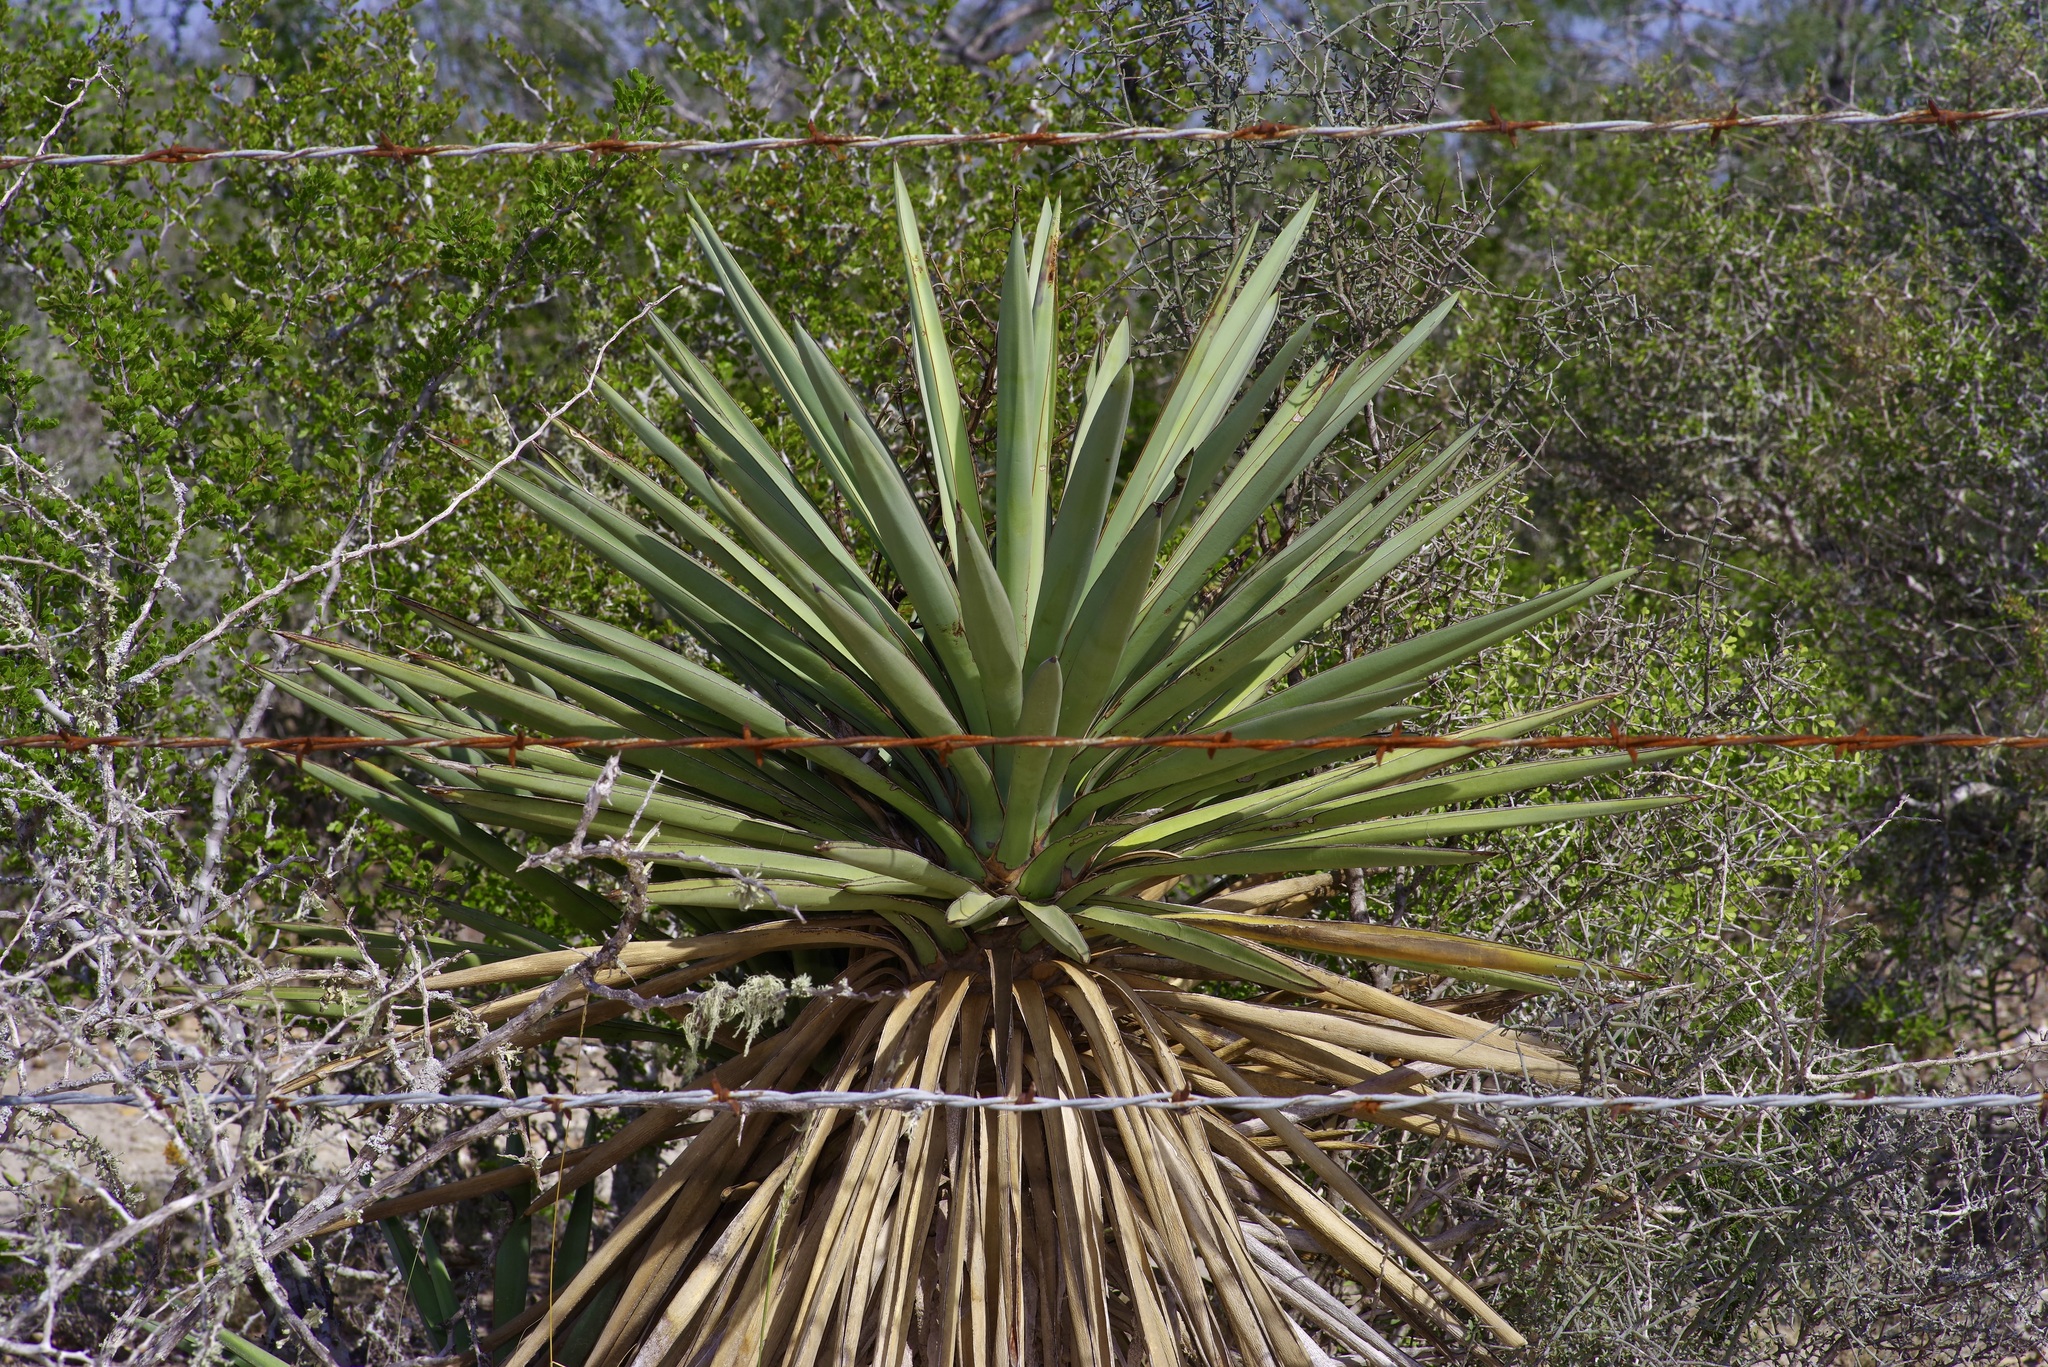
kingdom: Plantae
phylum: Tracheophyta
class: Liliopsida
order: Asparagales
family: Asparagaceae
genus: Yucca
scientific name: Yucca treculiana
